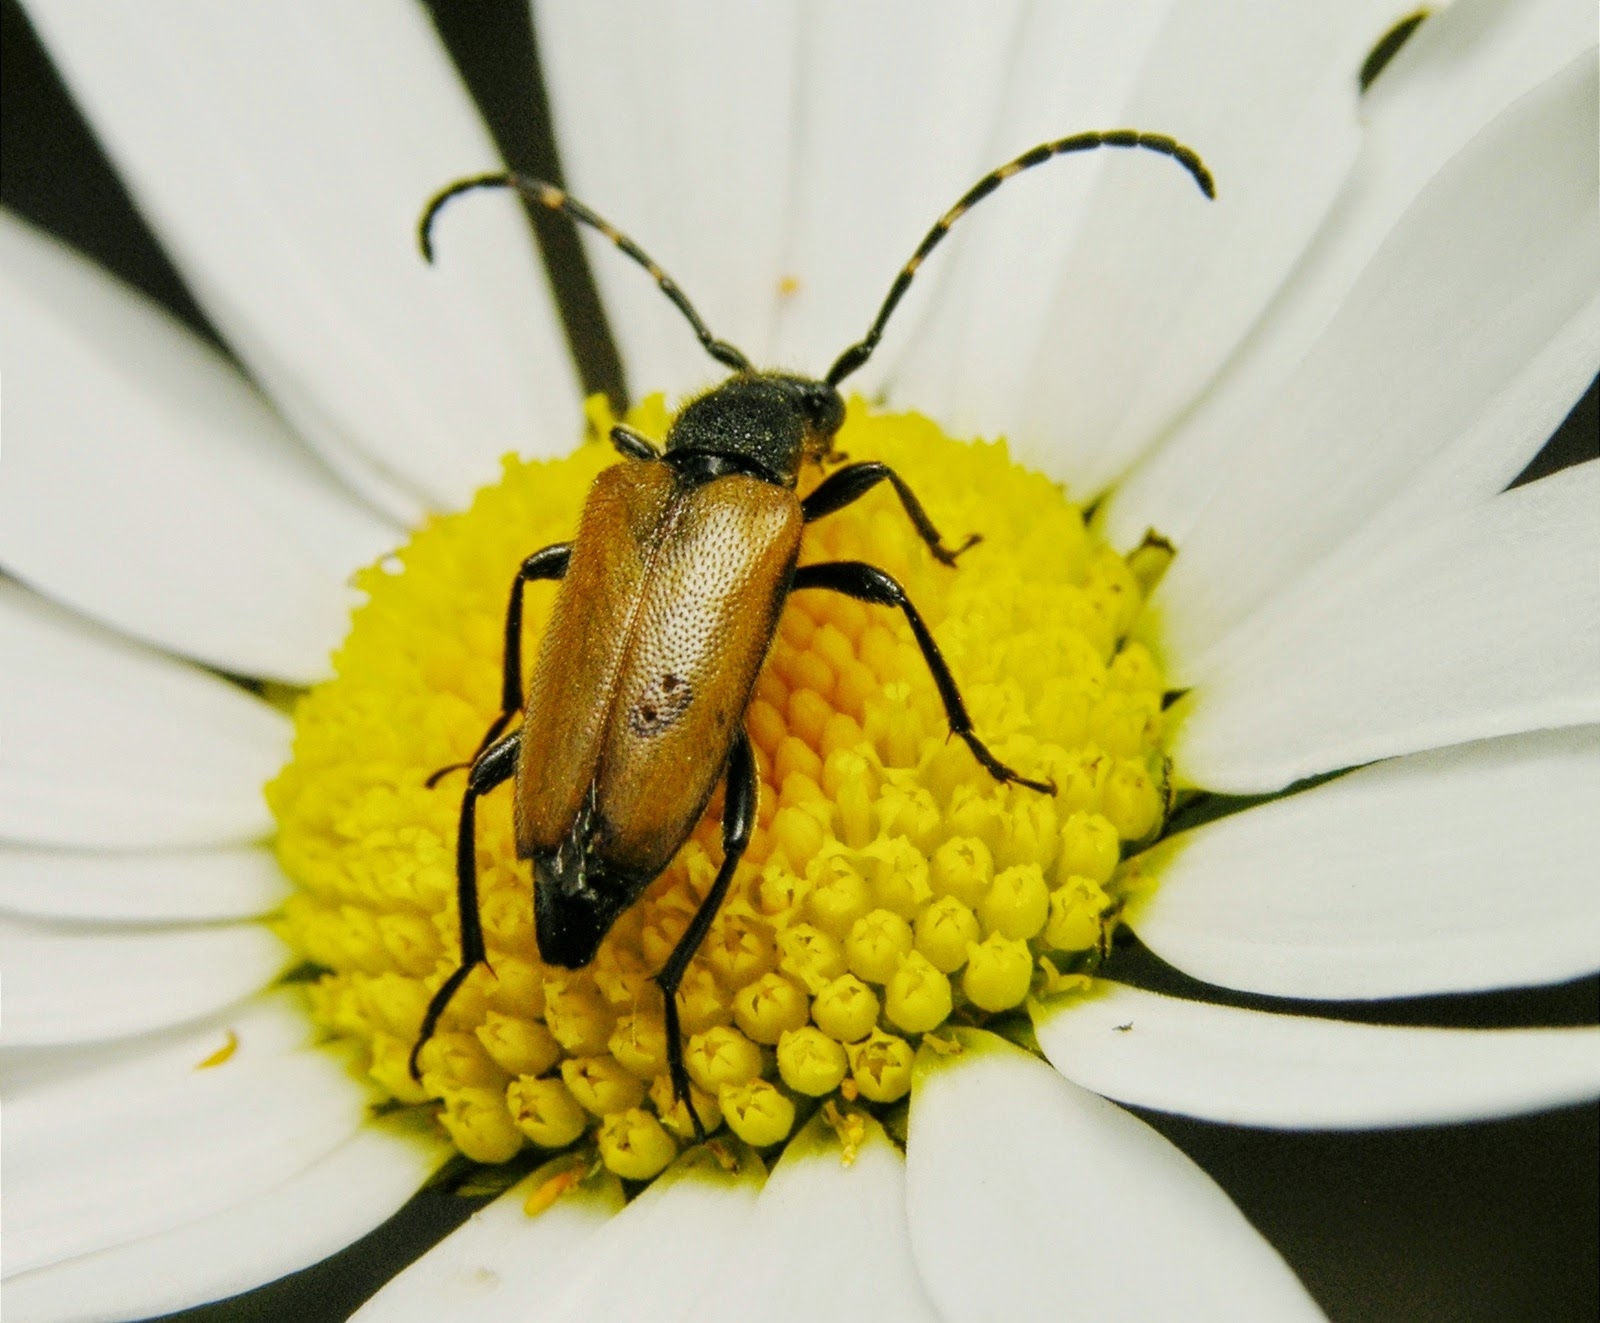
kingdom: Animalia
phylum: Arthropoda
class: Insecta
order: Coleoptera
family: Cerambycidae
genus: Paracorymbia
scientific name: Paracorymbia maculicornis
